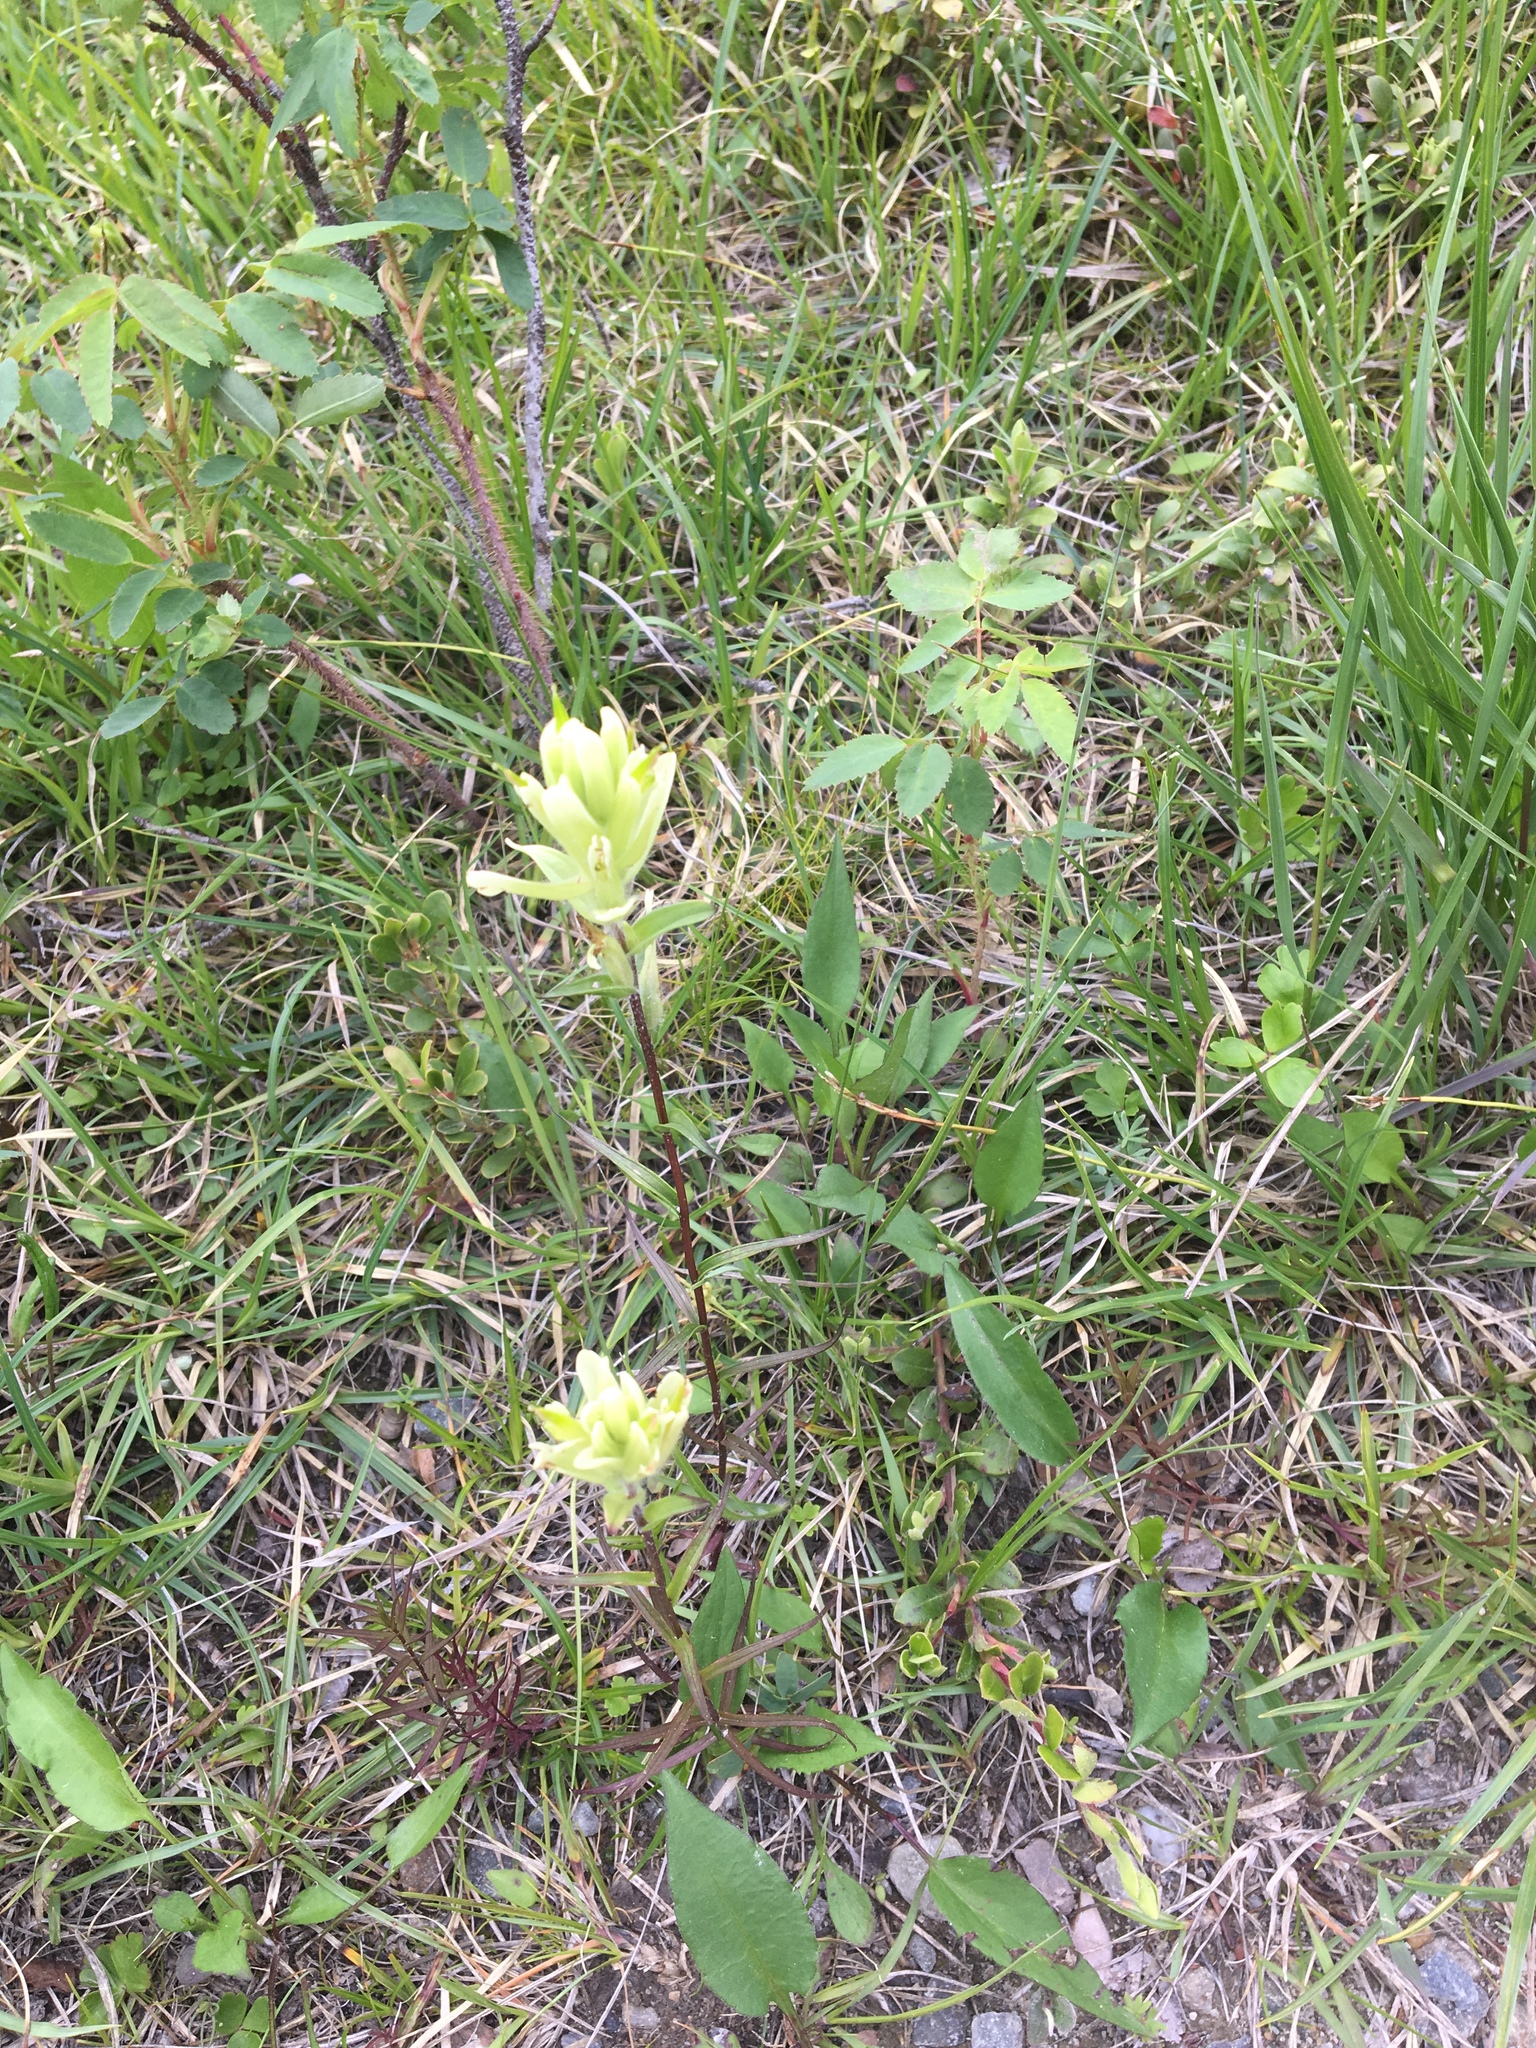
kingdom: Plantae
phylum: Tracheophyta
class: Magnoliopsida
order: Lamiales
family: Orobanchaceae
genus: Castilleja
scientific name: Castilleja occidentalis
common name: Western paintbrush
